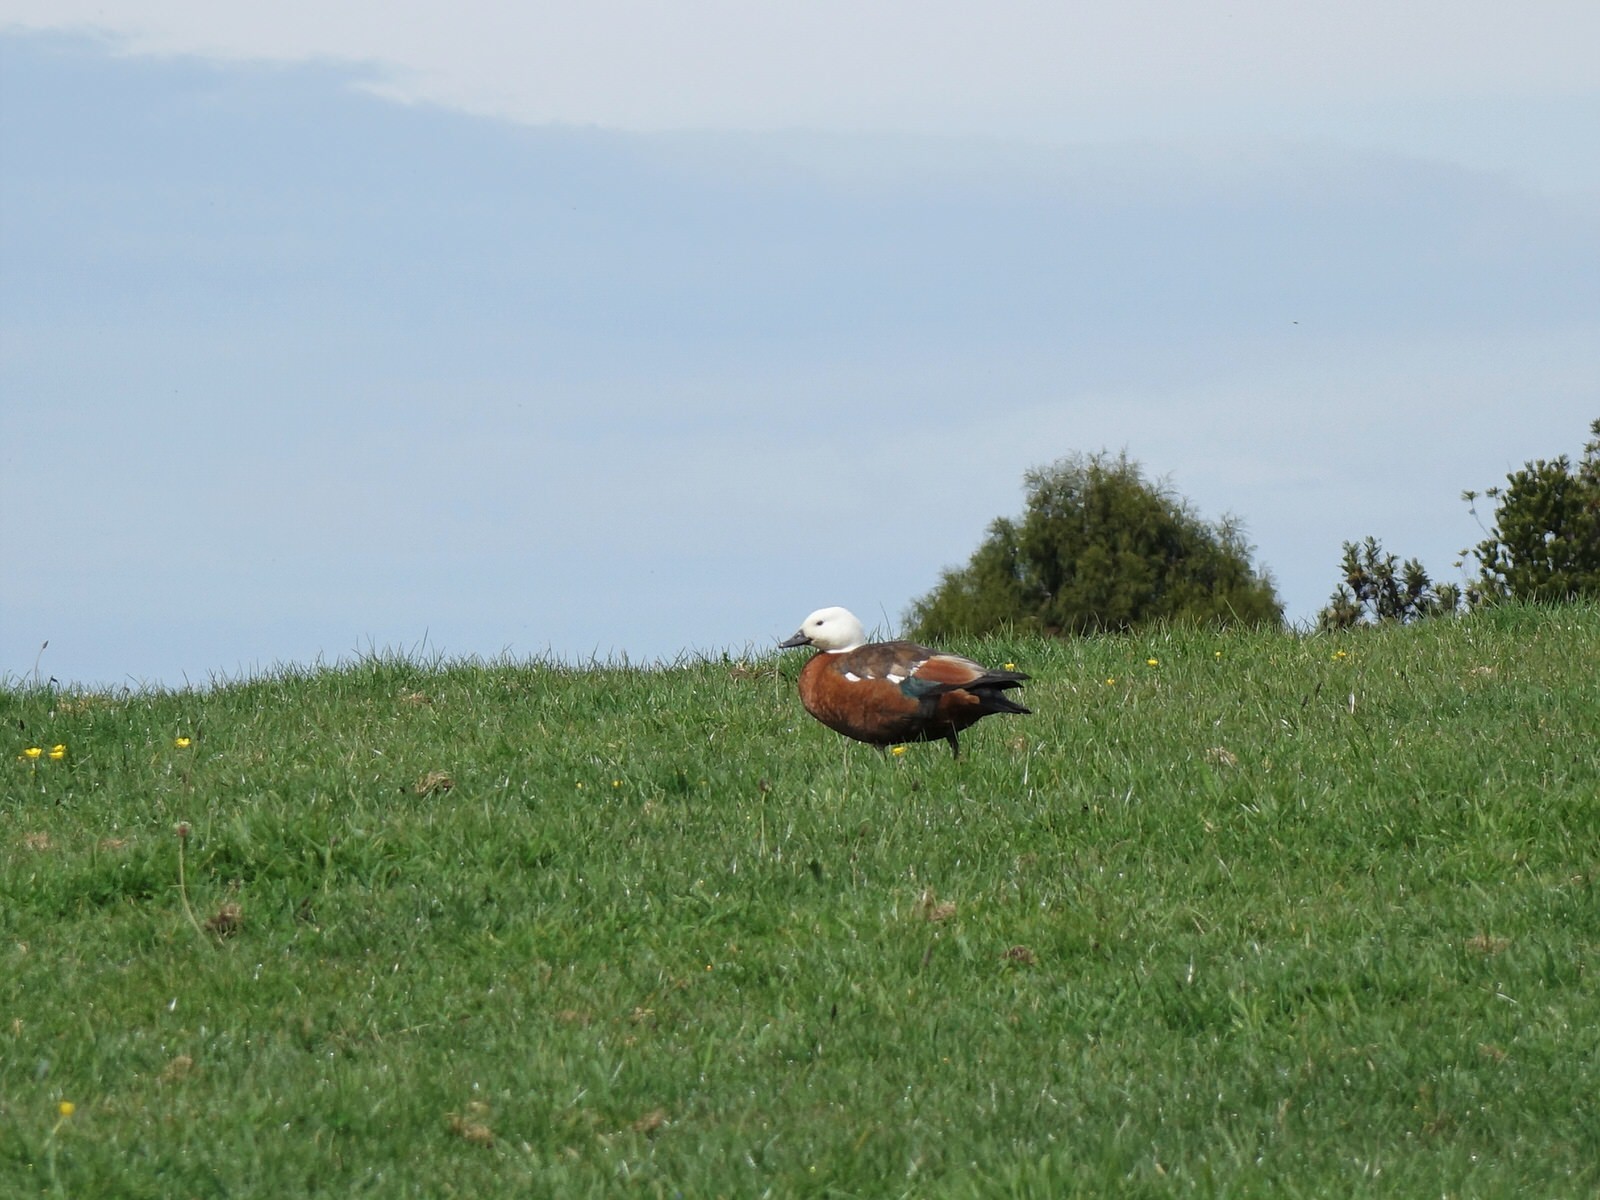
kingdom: Animalia
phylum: Chordata
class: Aves
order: Anseriformes
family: Anatidae
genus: Tadorna
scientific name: Tadorna variegata
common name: Paradise shelduck
